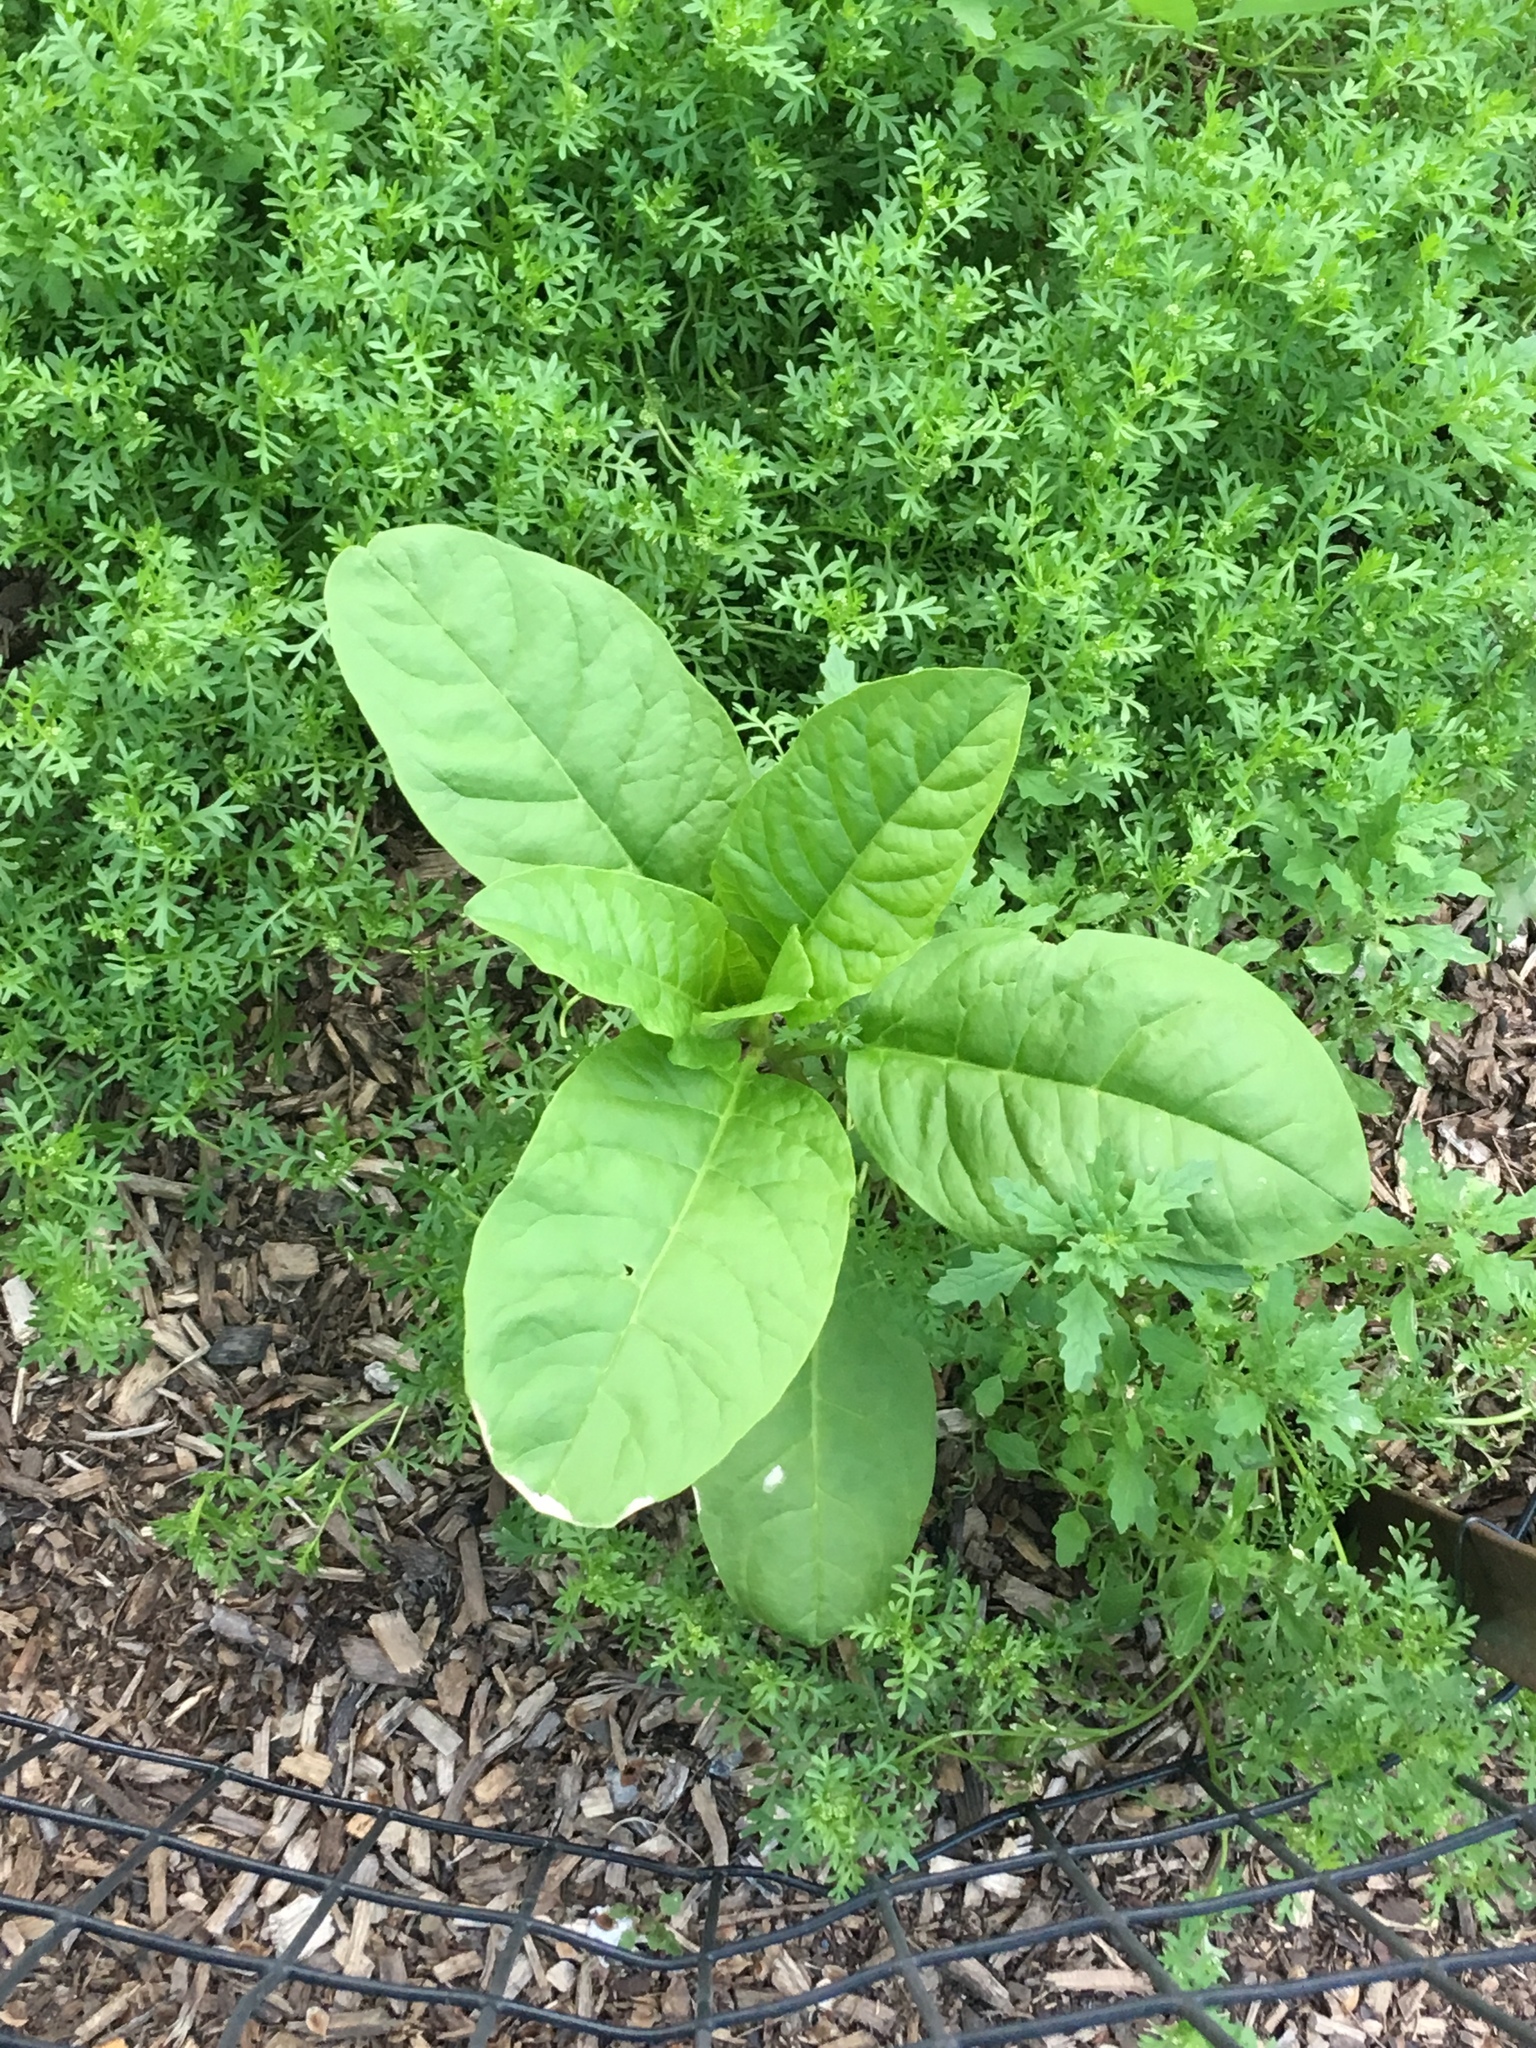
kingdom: Plantae
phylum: Tracheophyta
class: Magnoliopsida
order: Caryophyllales
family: Phytolaccaceae
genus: Phytolacca
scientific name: Phytolacca americana
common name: American pokeweed
